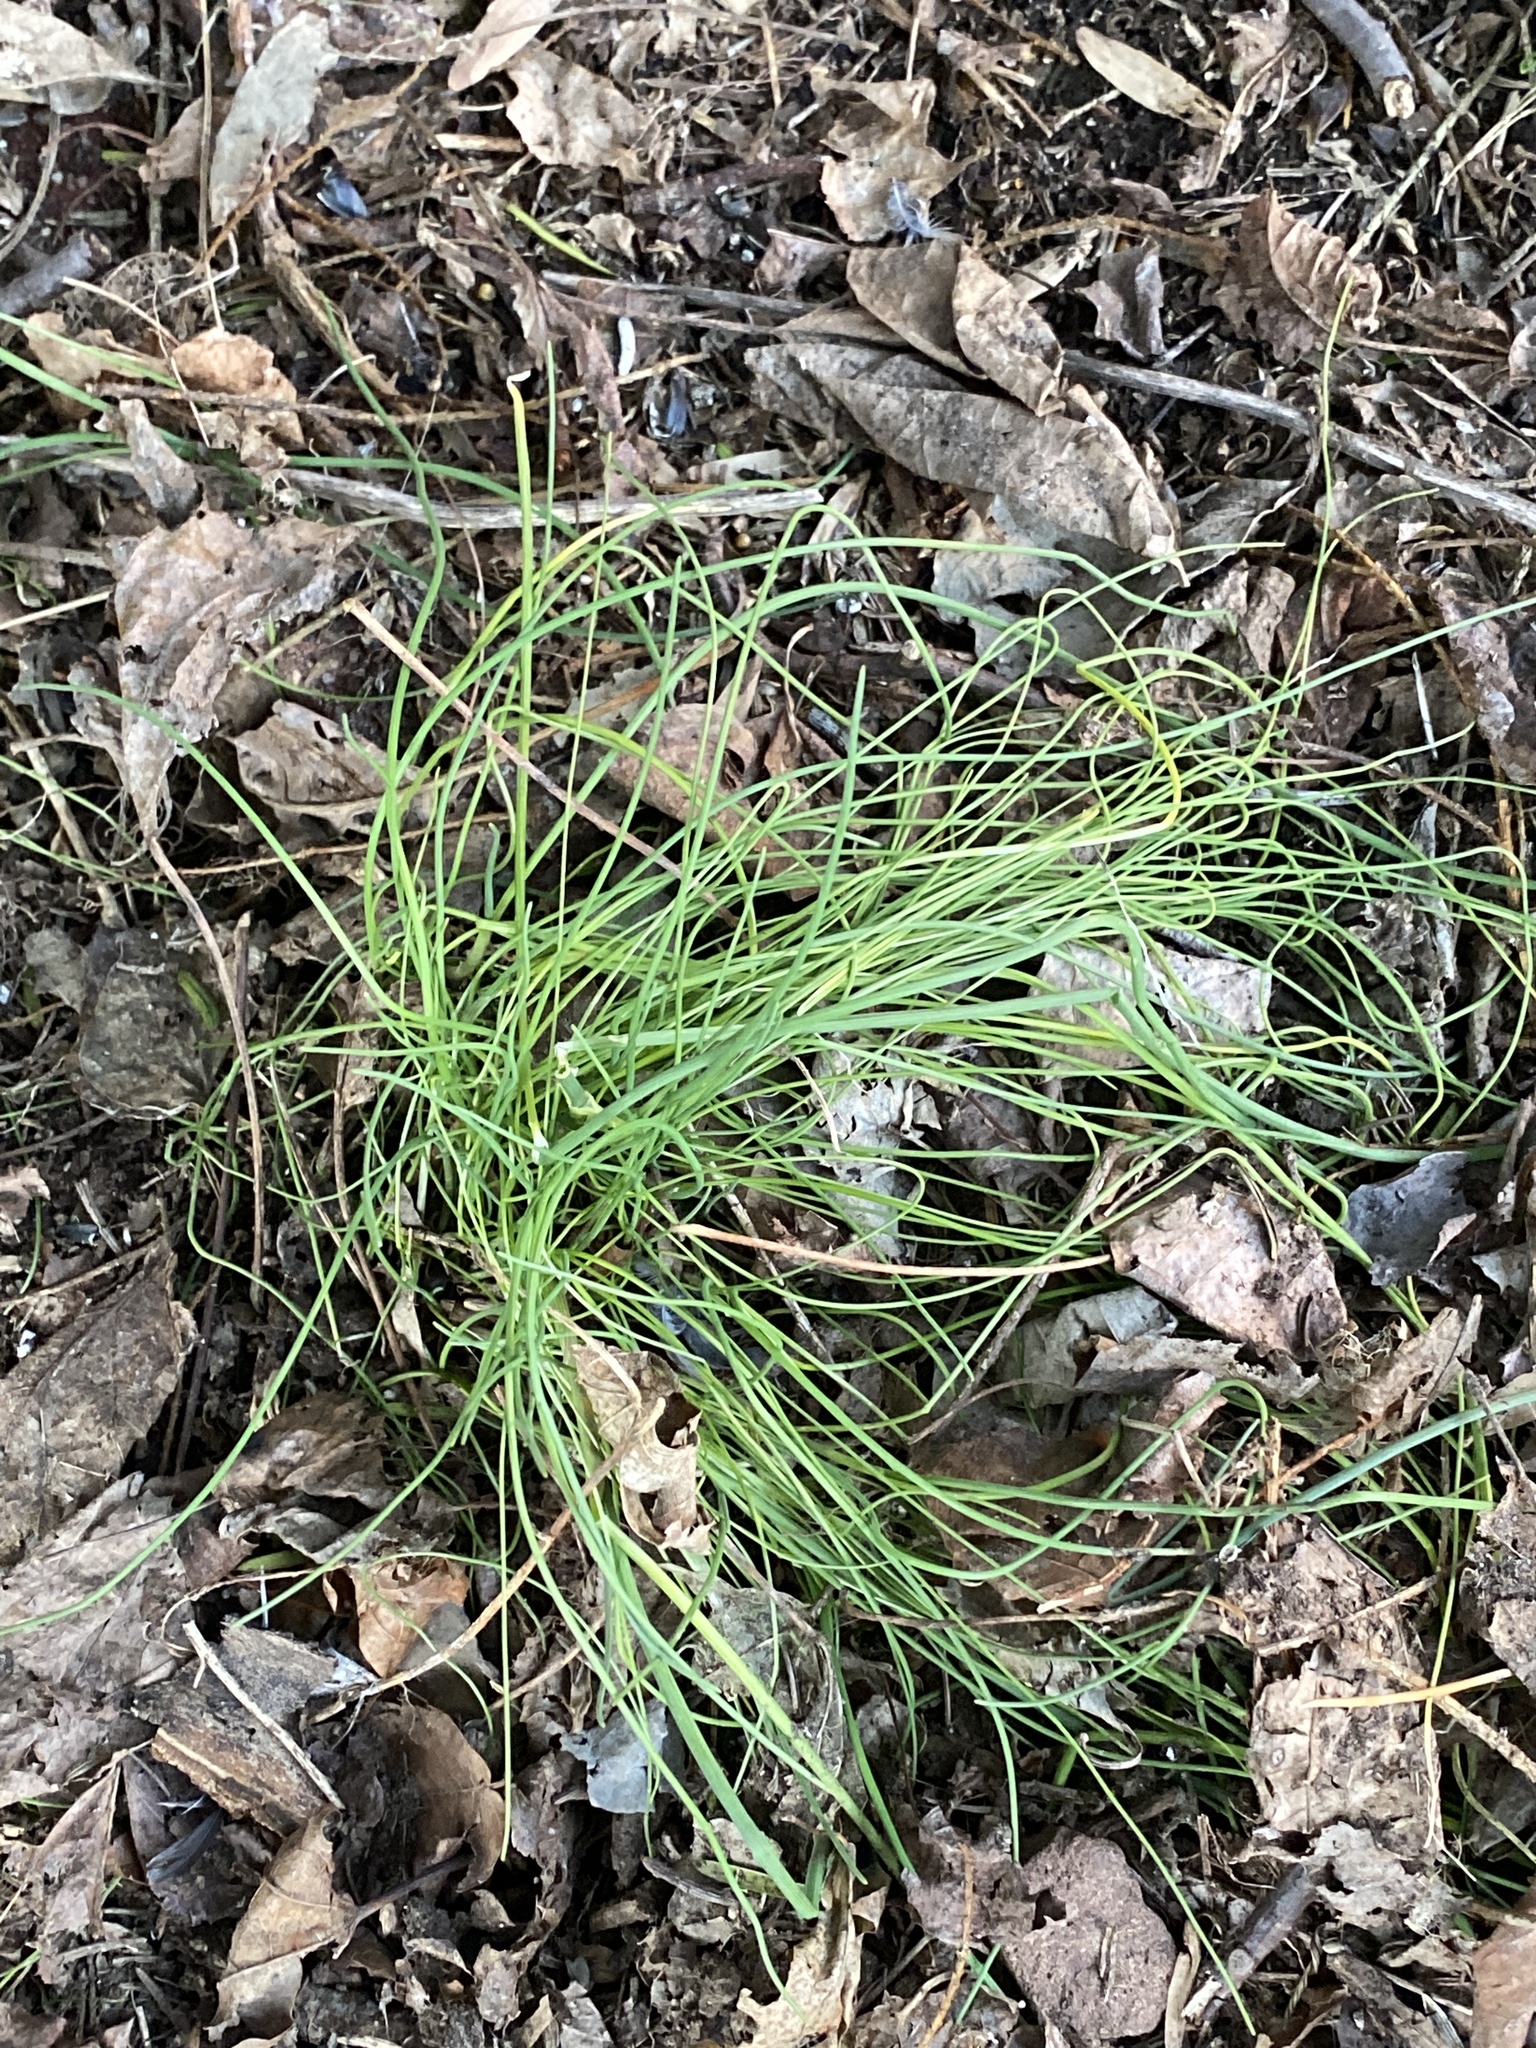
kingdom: Plantae
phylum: Tracheophyta
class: Liliopsida
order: Asparagales
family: Amaryllidaceae
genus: Allium
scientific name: Allium vineale
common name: Crow garlic
